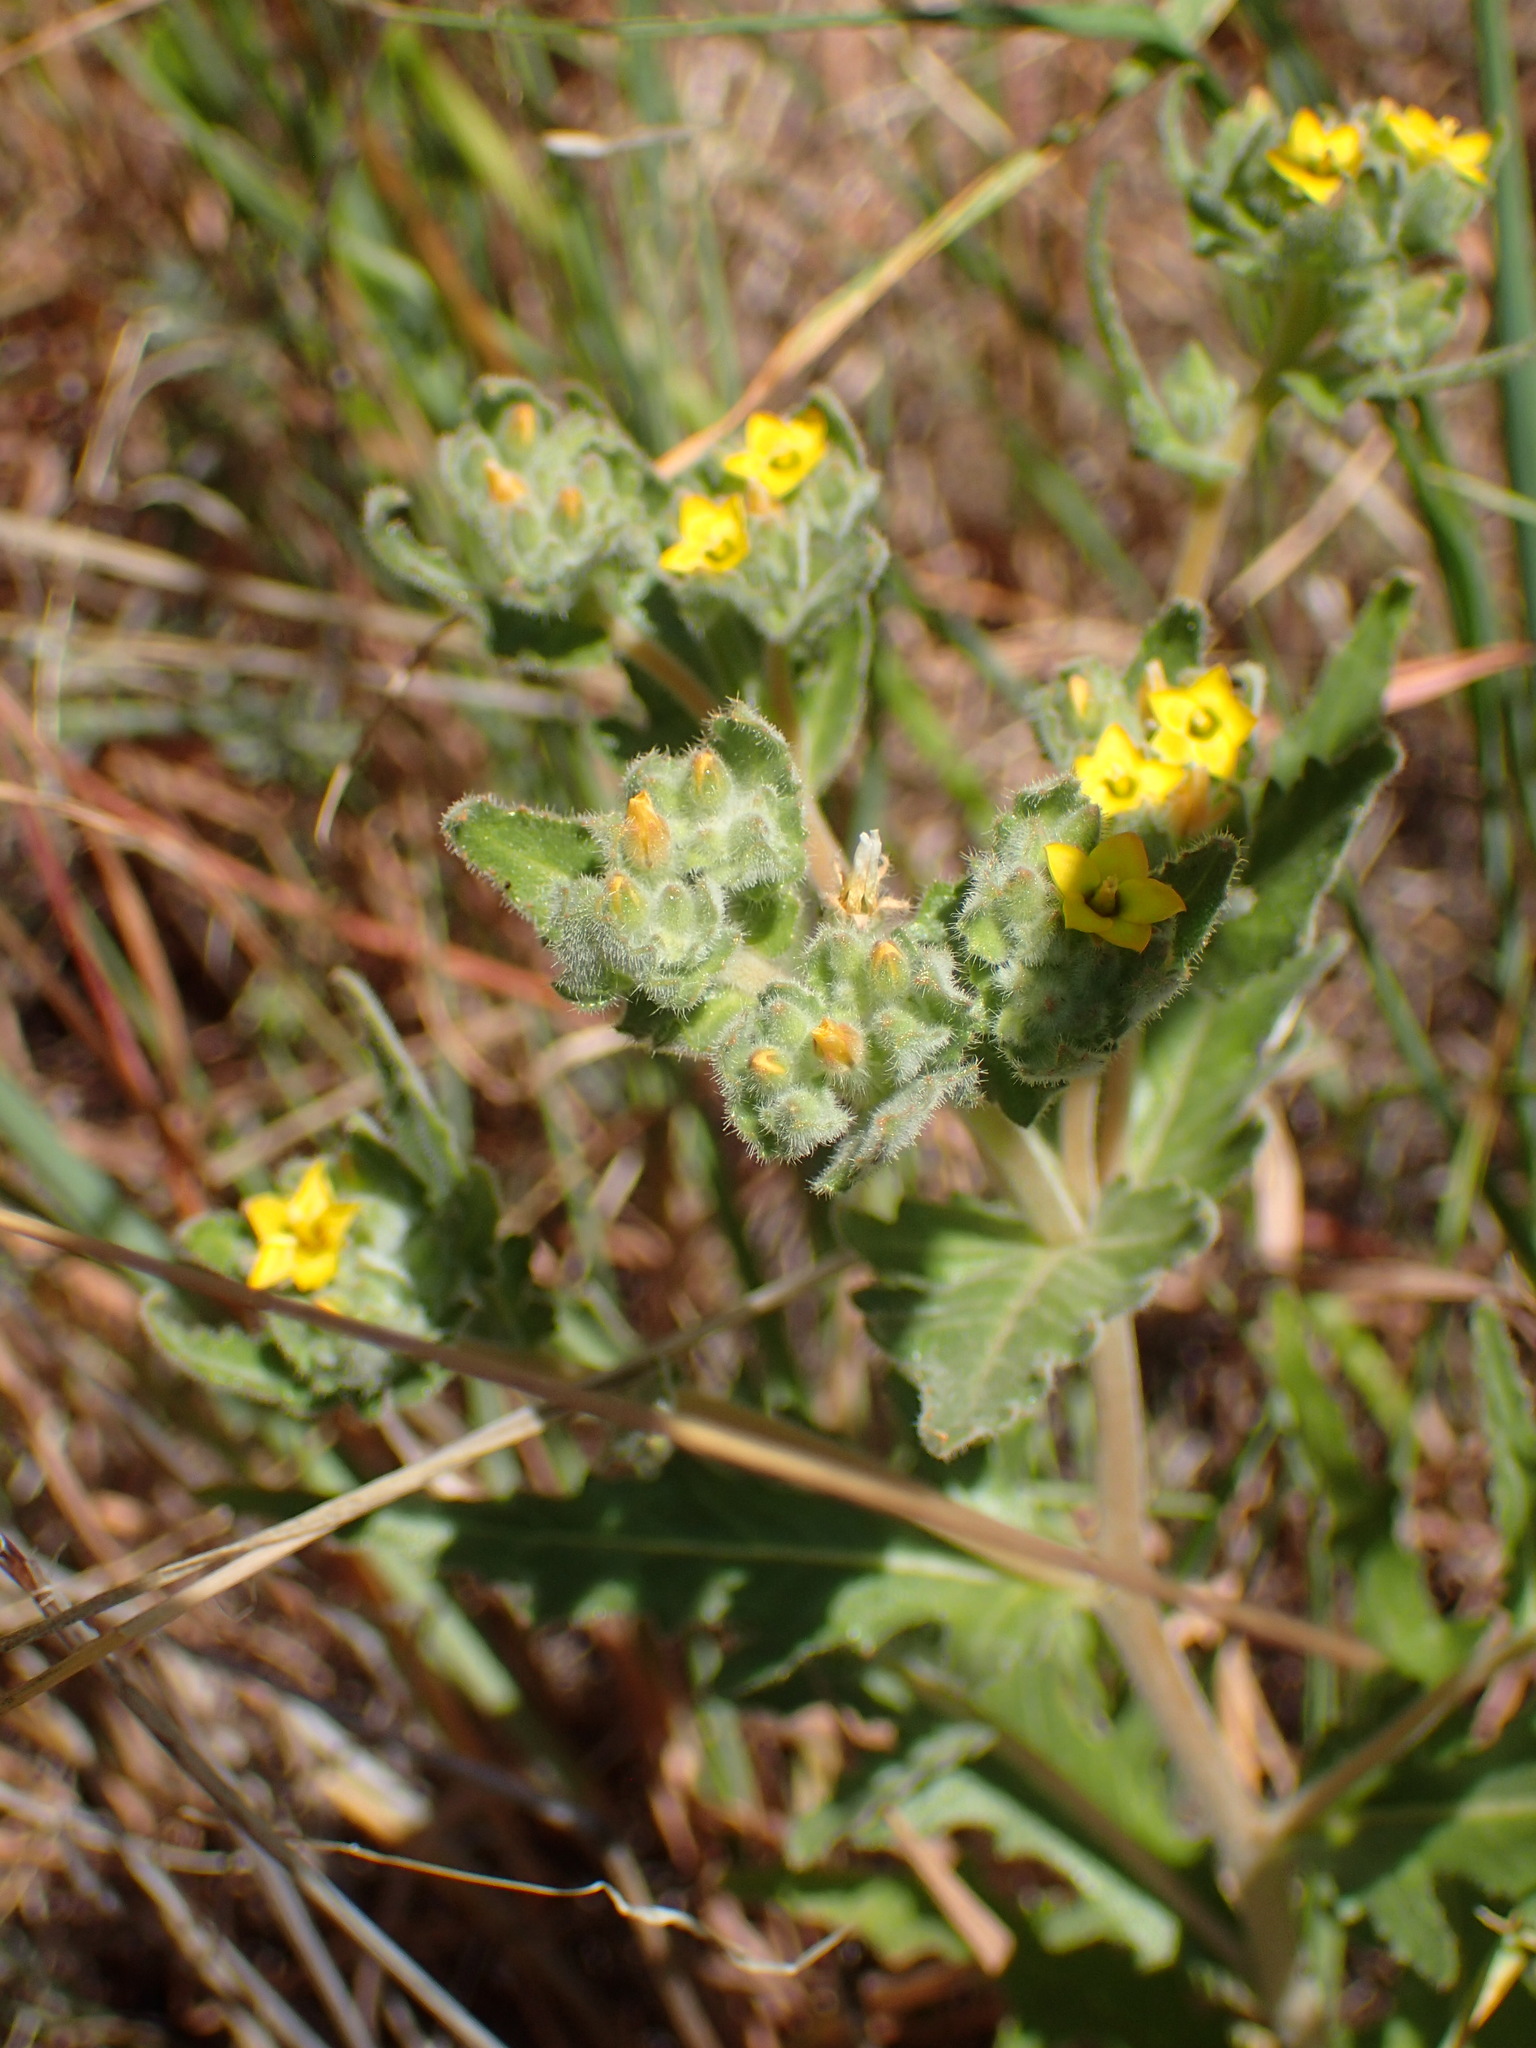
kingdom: Plantae
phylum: Tracheophyta
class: Magnoliopsida
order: Cornales
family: Loasaceae
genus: Mentzelia
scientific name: Mentzelia micrantha
